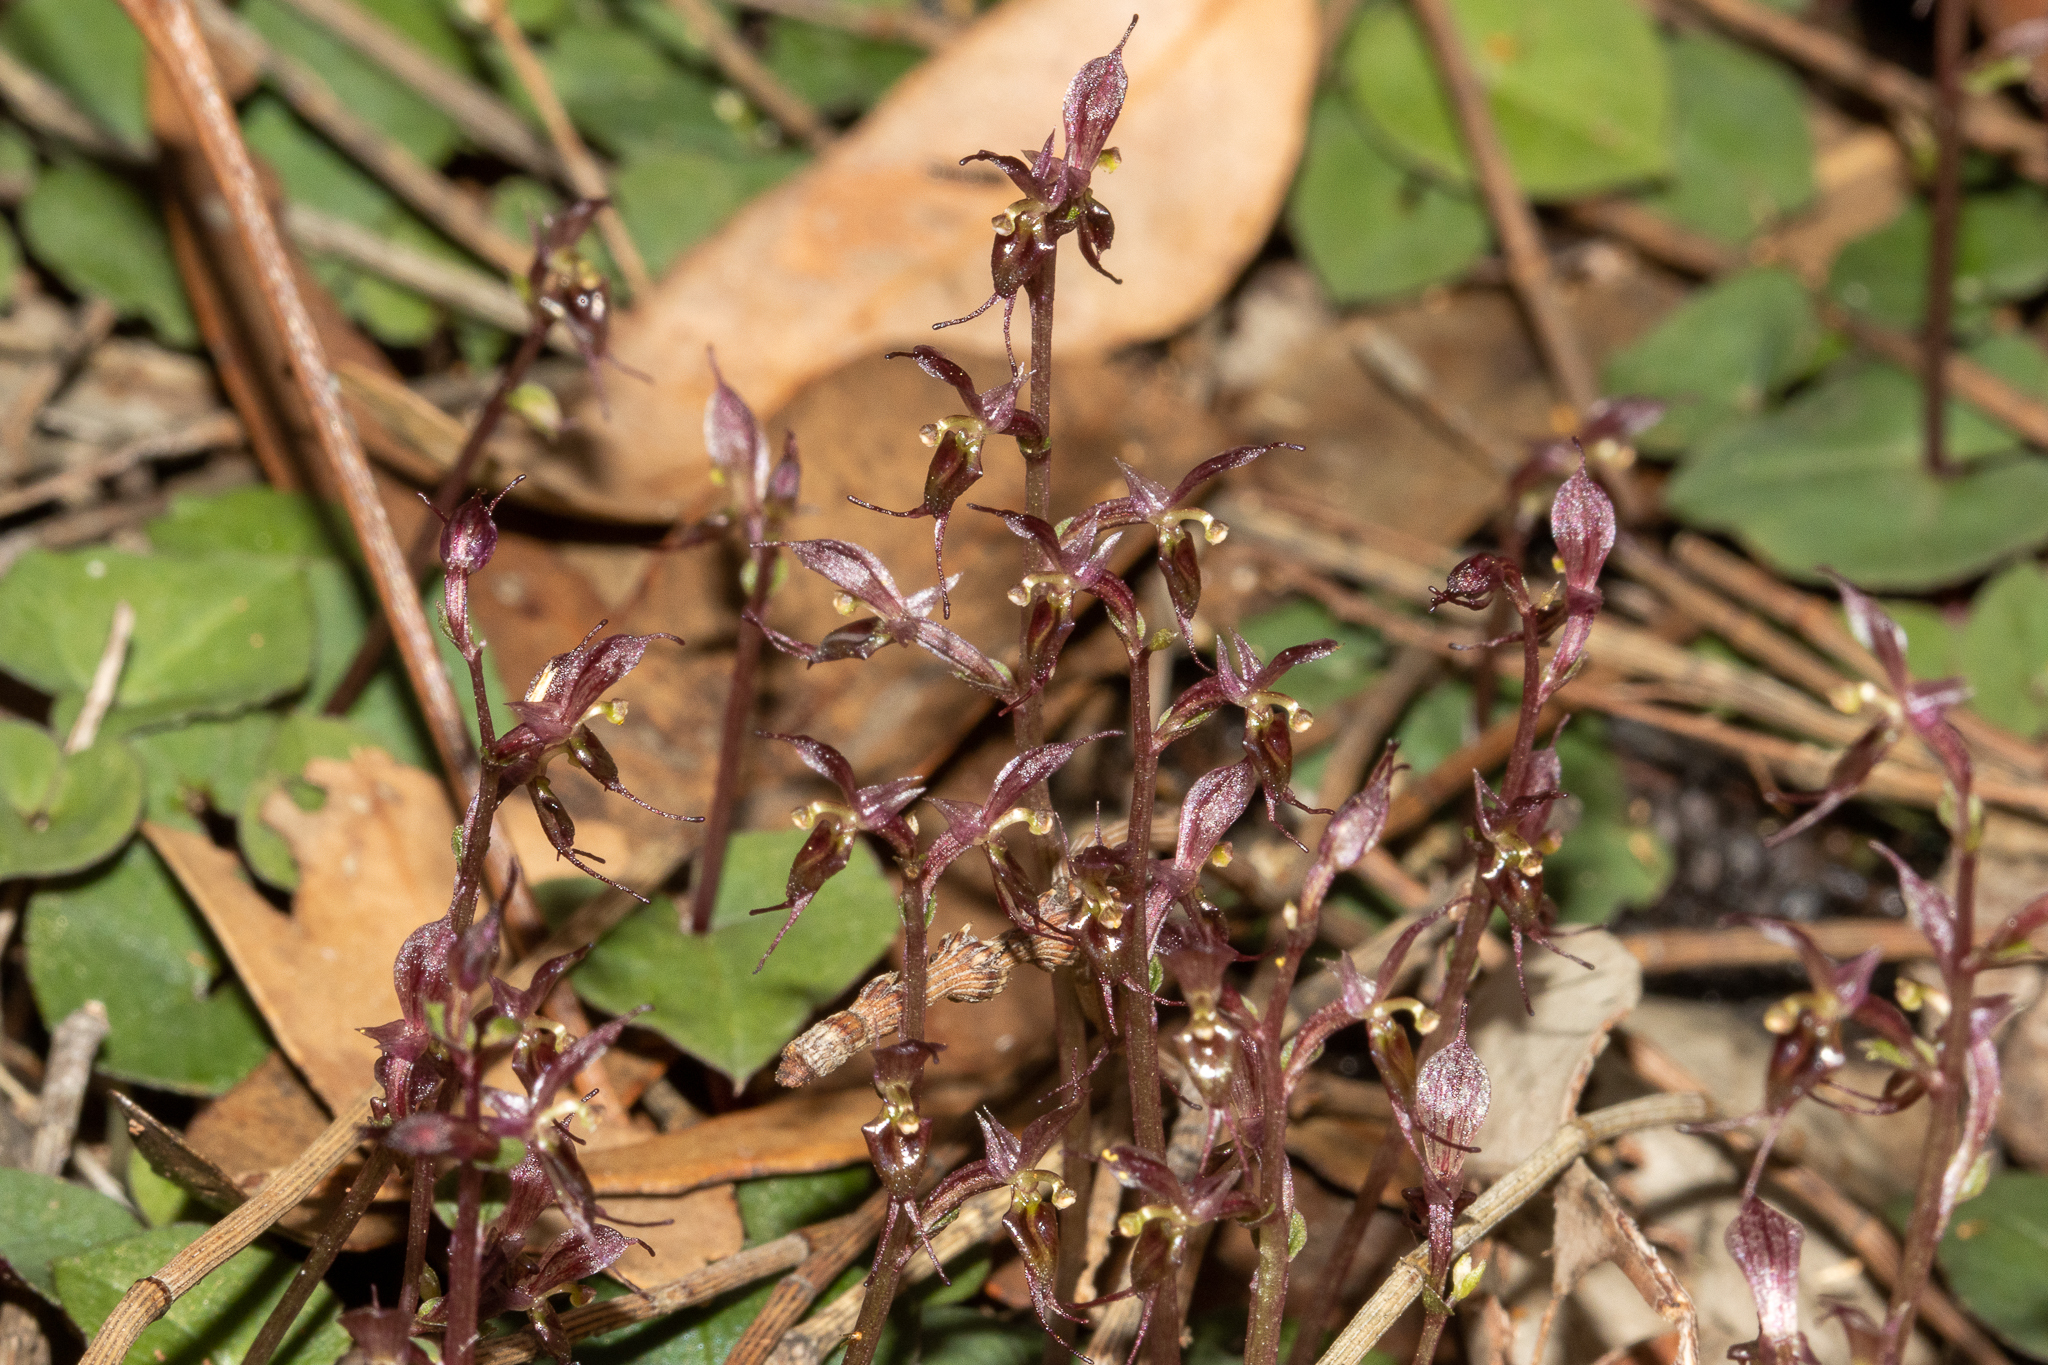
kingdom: Plantae
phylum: Tracheophyta
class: Liliopsida
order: Asparagales
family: Orchidaceae
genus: Acianthus
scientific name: Acianthus pusillus
